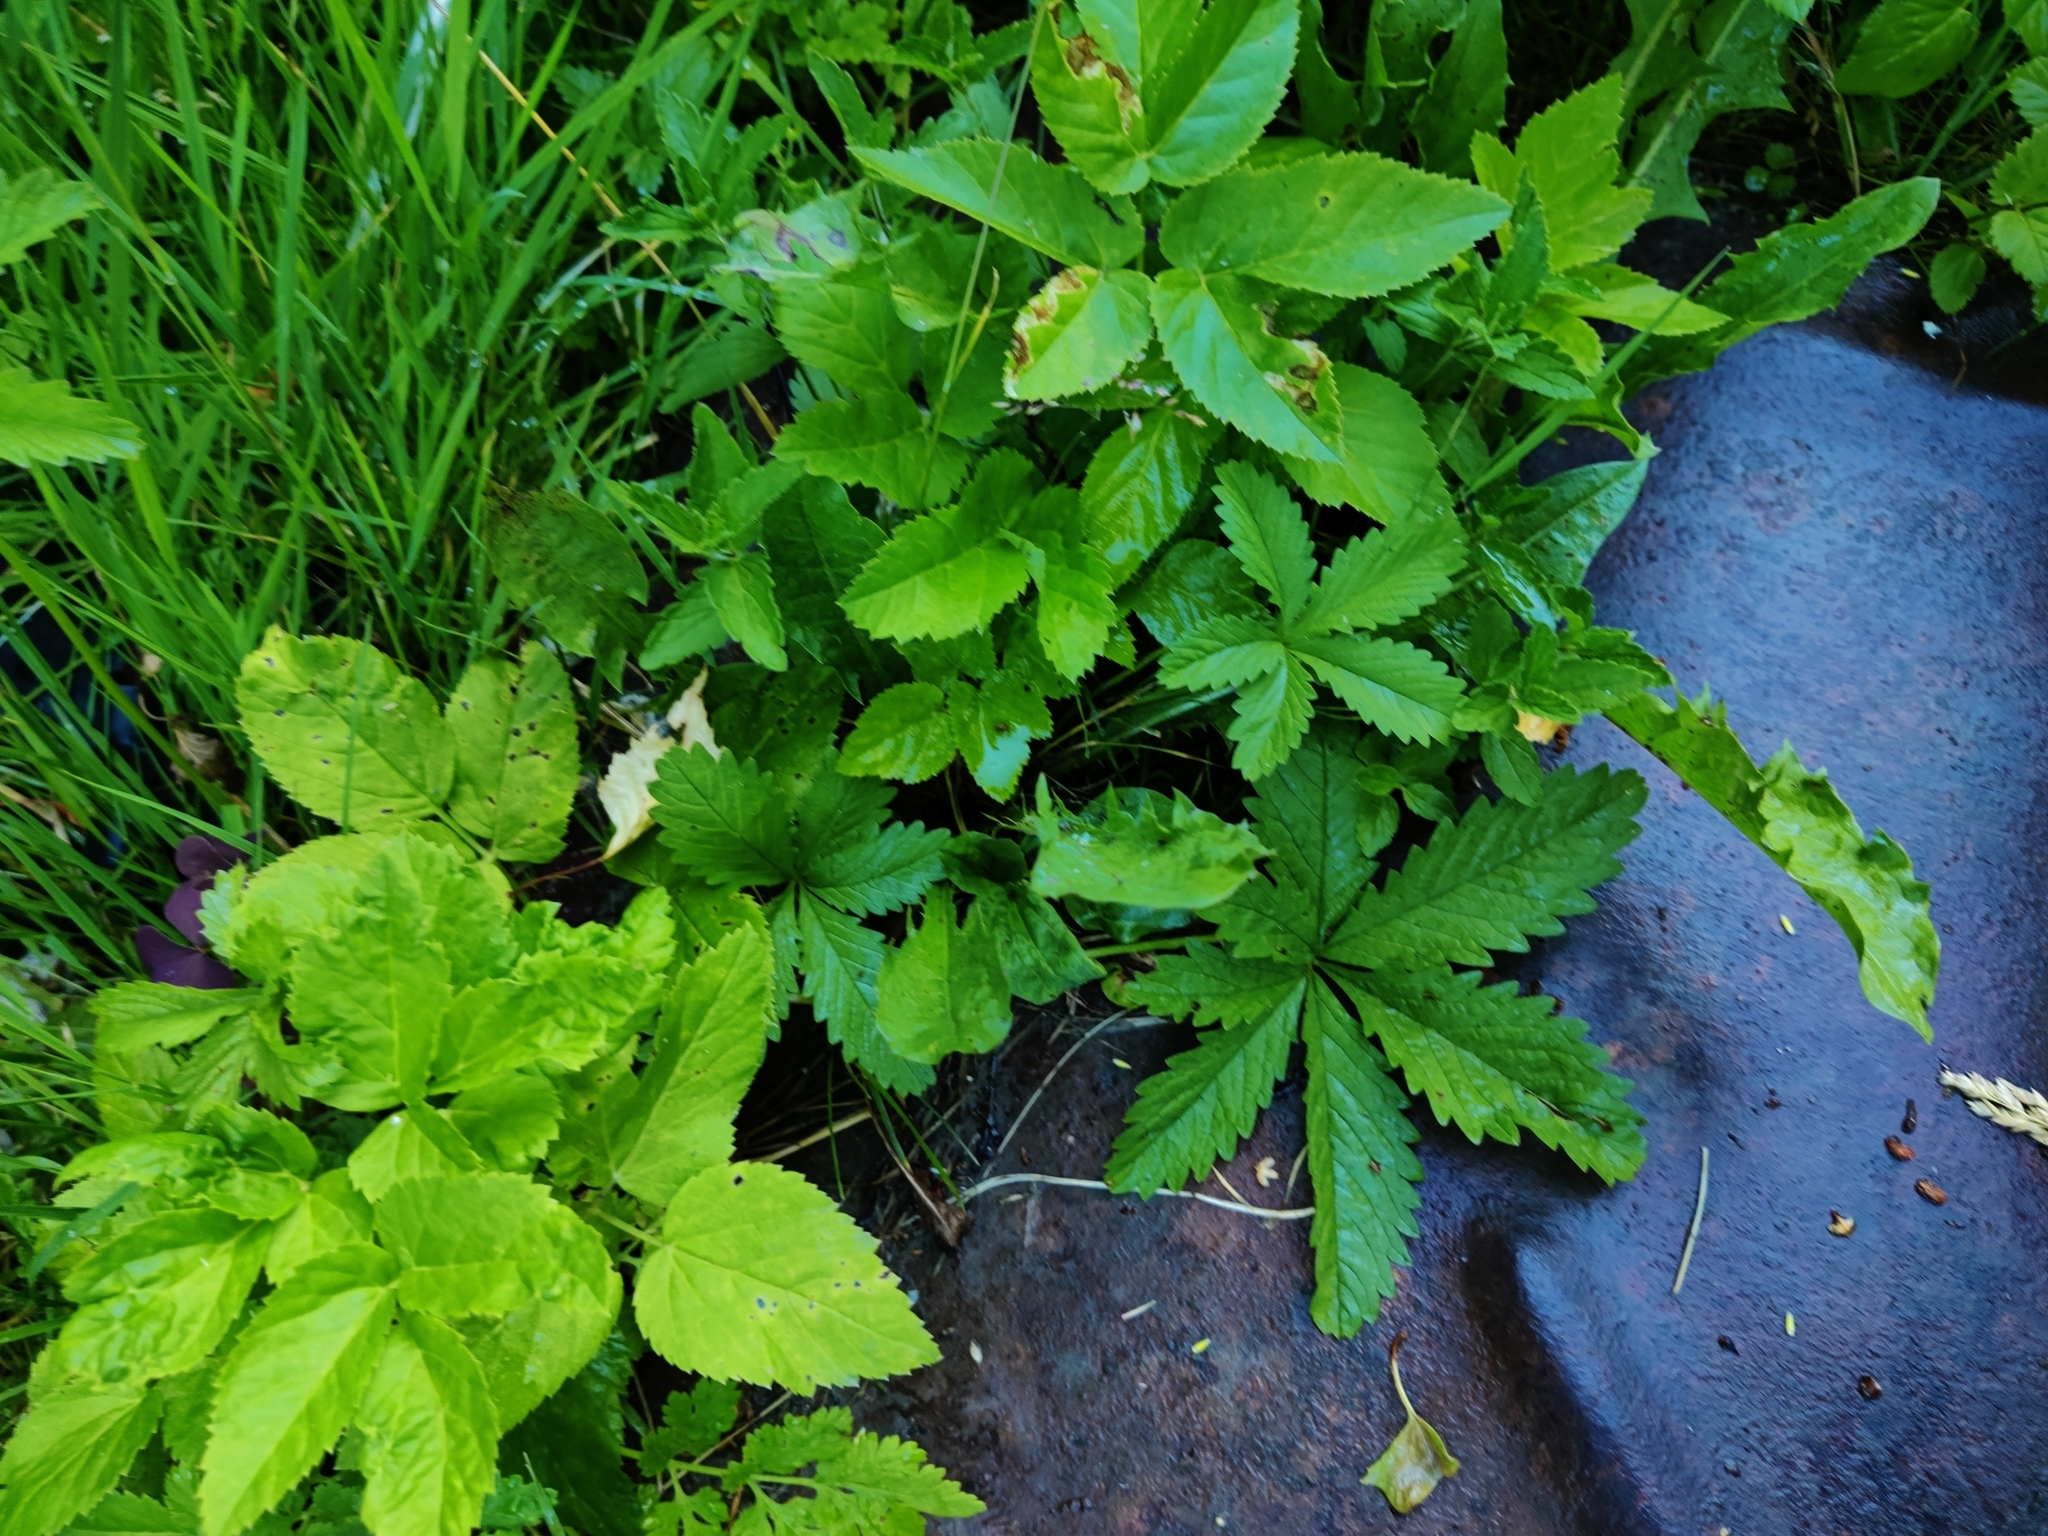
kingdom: Plantae
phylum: Tracheophyta
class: Magnoliopsida
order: Rosales
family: Rosaceae
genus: Potentilla
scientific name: Potentilla reptans
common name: Creeping cinquefoil
